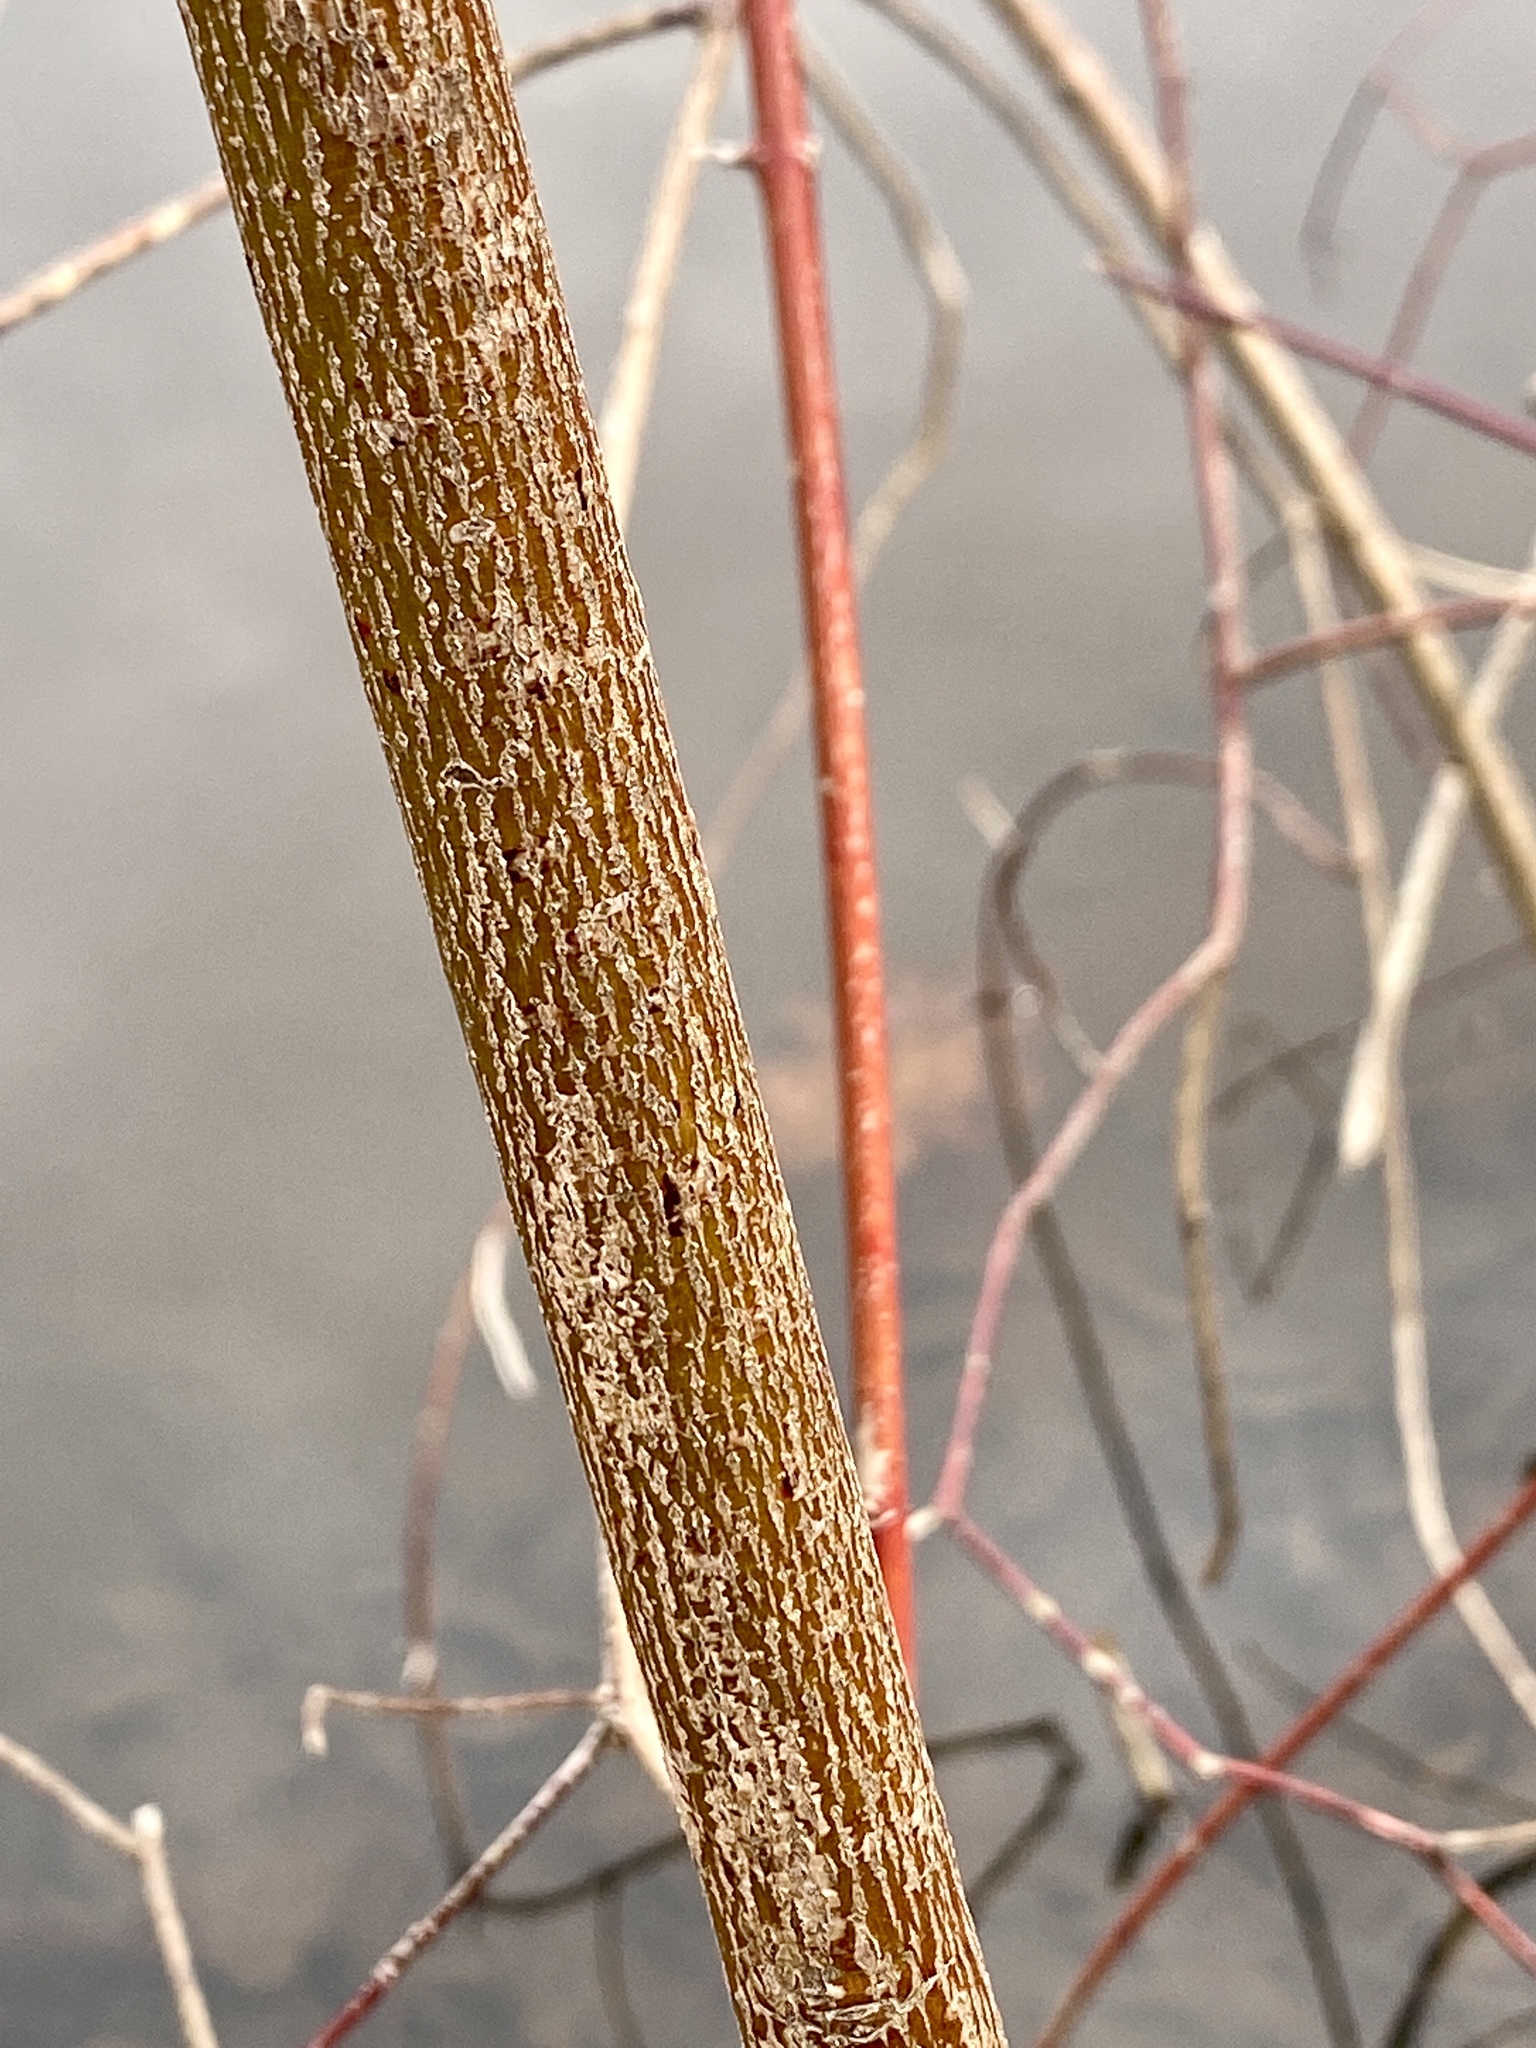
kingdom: Plantae
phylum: Tracheophyta
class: Magnoliopsida
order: Cornales
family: Cornaceae
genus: Cornus
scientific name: Cornus amomum
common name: Silky dogwood
